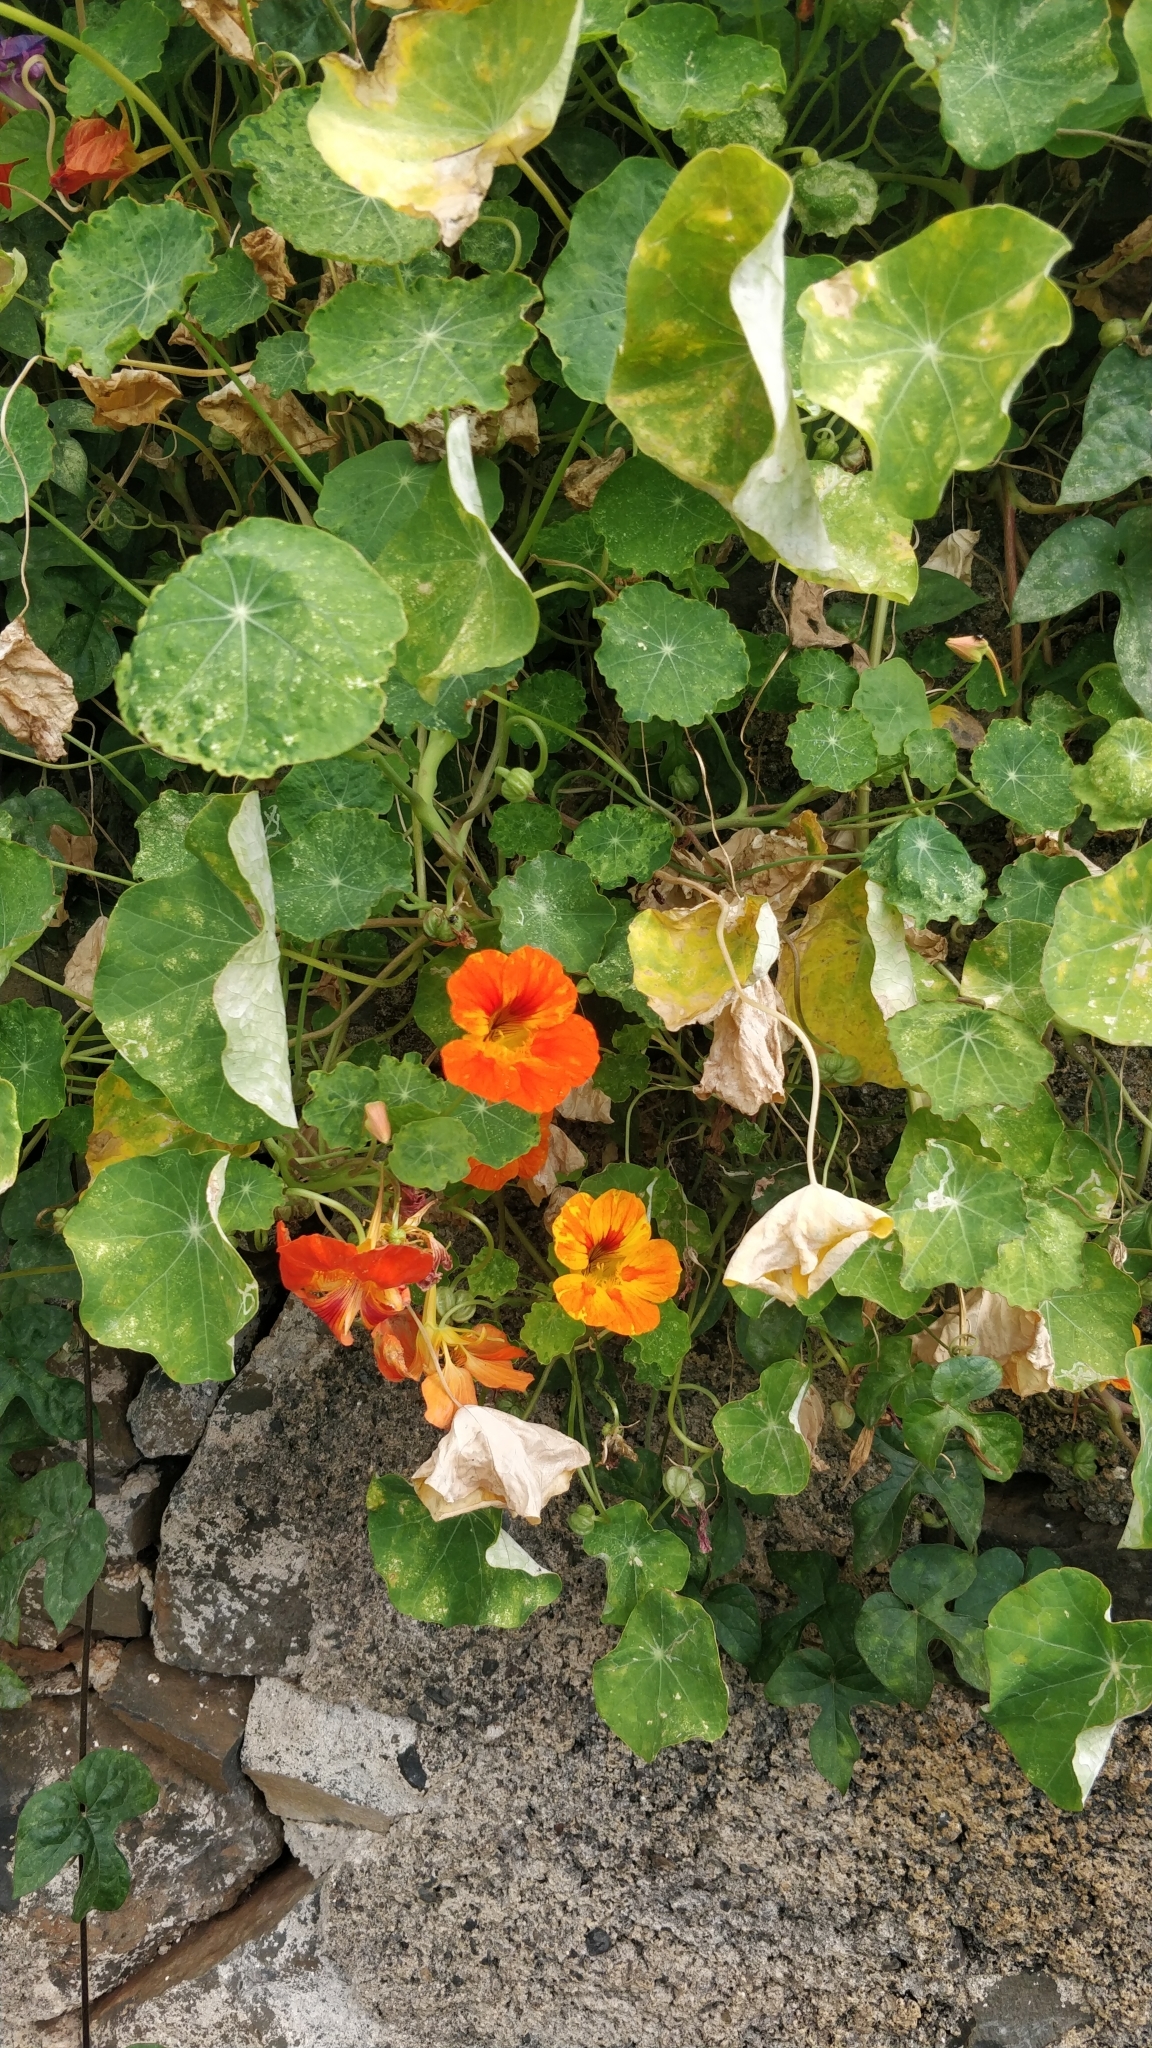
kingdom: Plantae
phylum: Tracheophyta
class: Magnoliopsida
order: Brassicales
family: Tropaeolaceae
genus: Tropaeolum
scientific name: Tropaeolum majus
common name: Nasturtium
